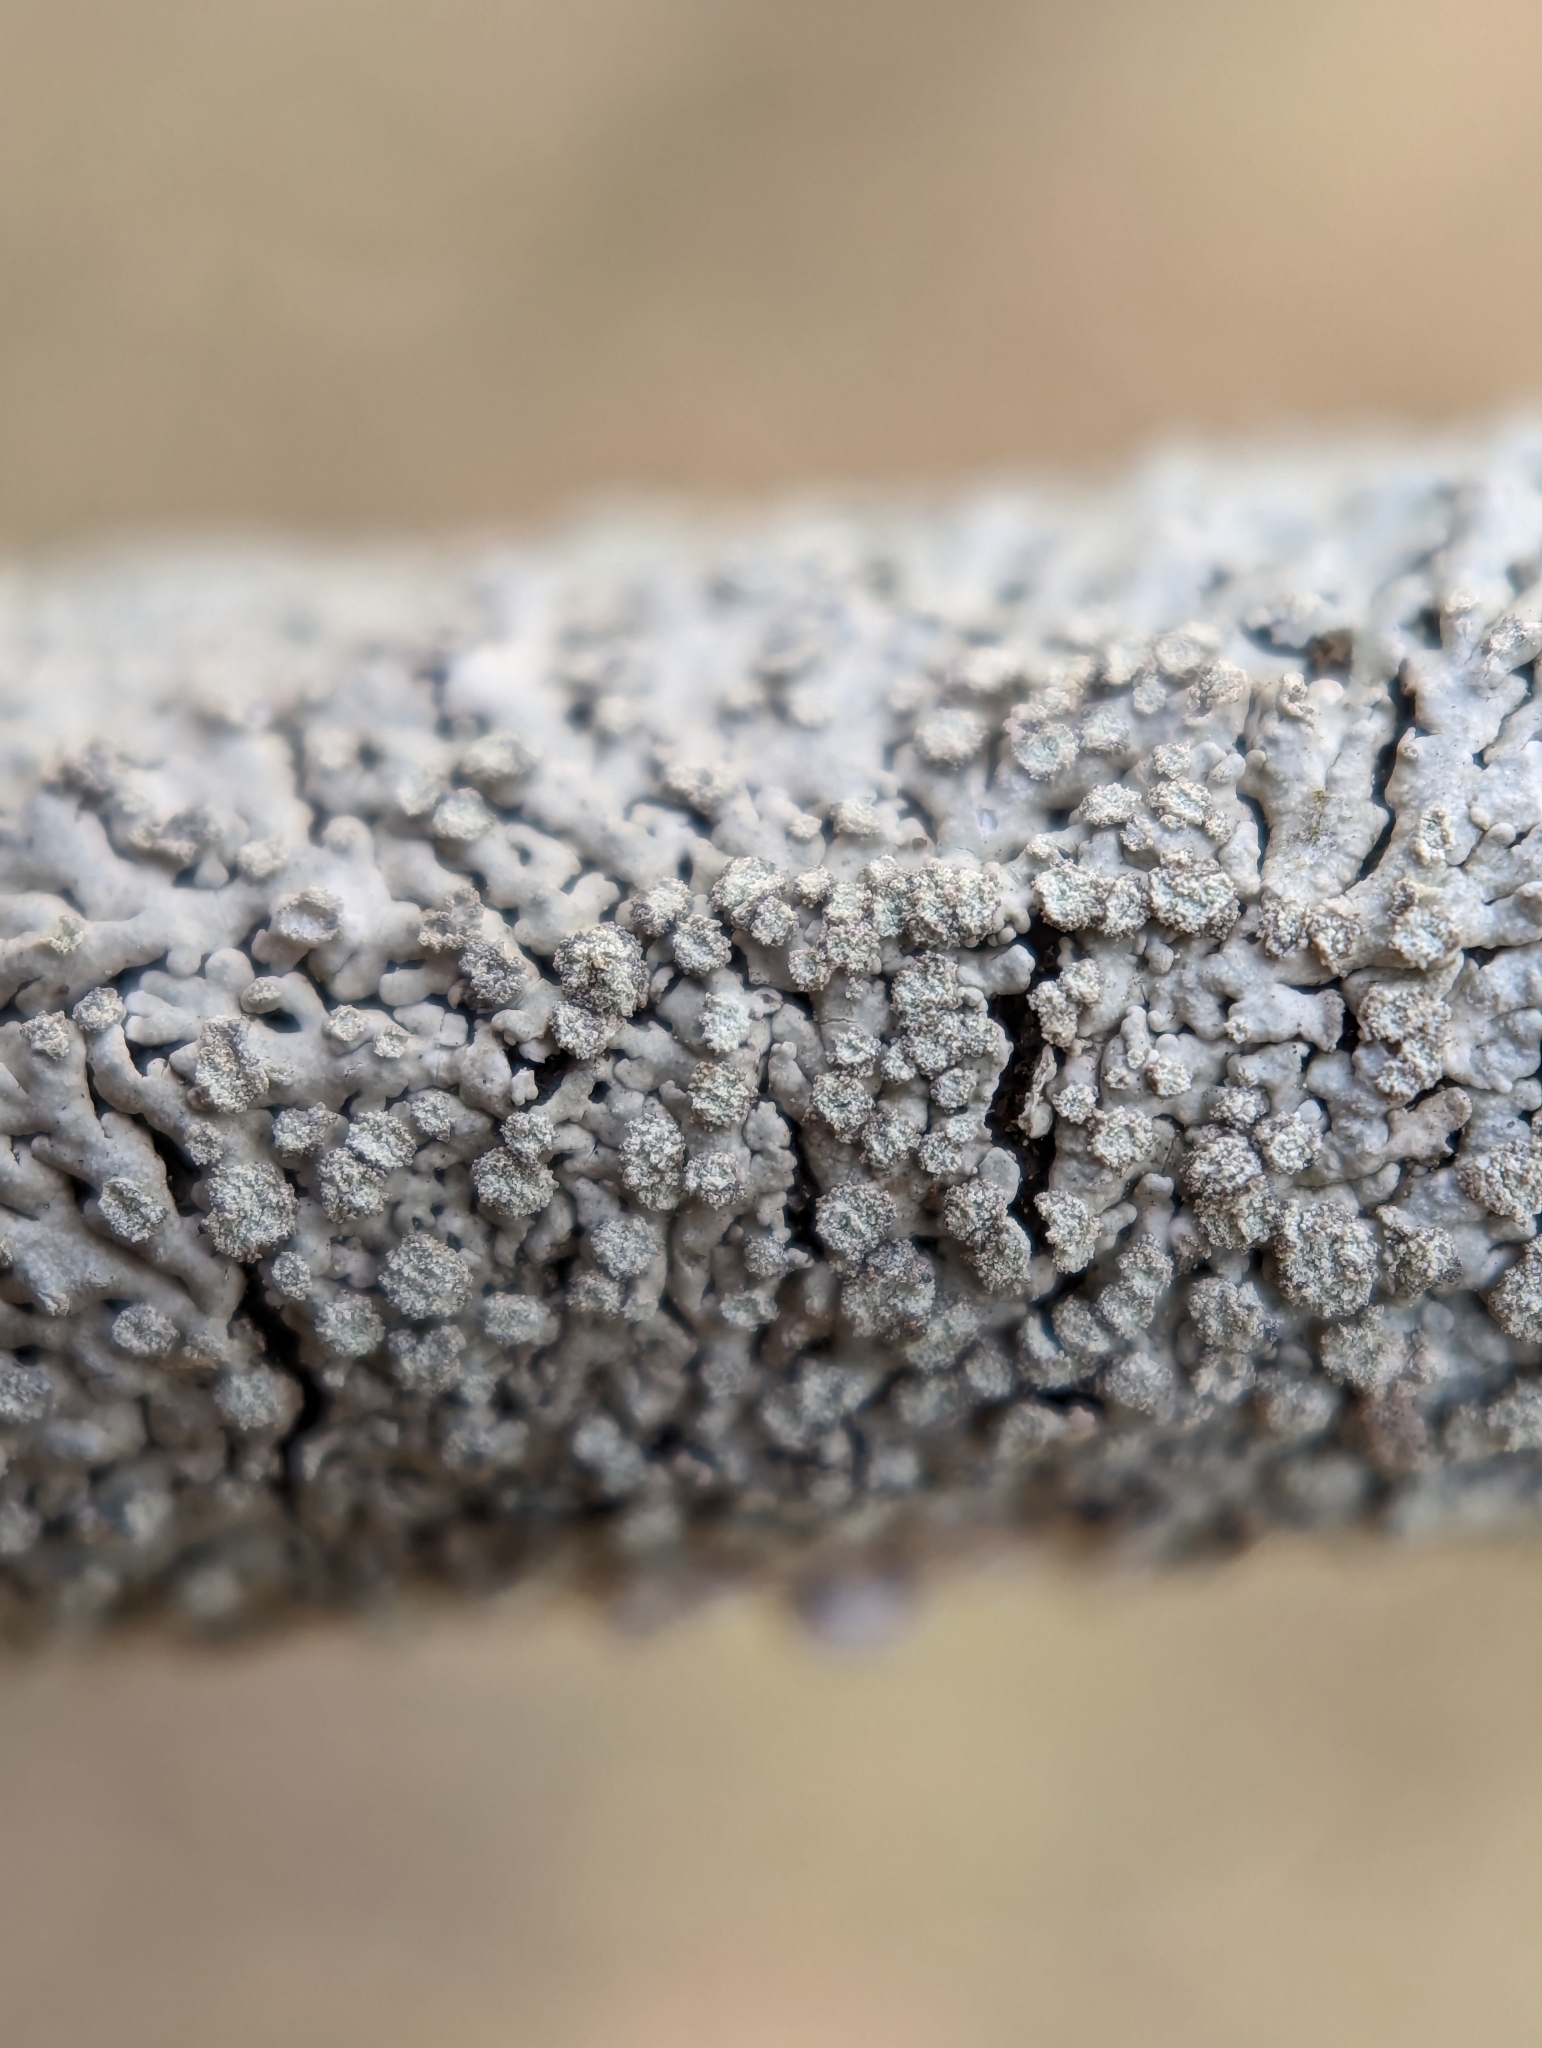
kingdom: Fungi
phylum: Ascomycota
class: Lecanoromycetes
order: Caliciales
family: Physciaceae
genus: Physcia
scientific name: Physcia americana
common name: American rosette lichen
